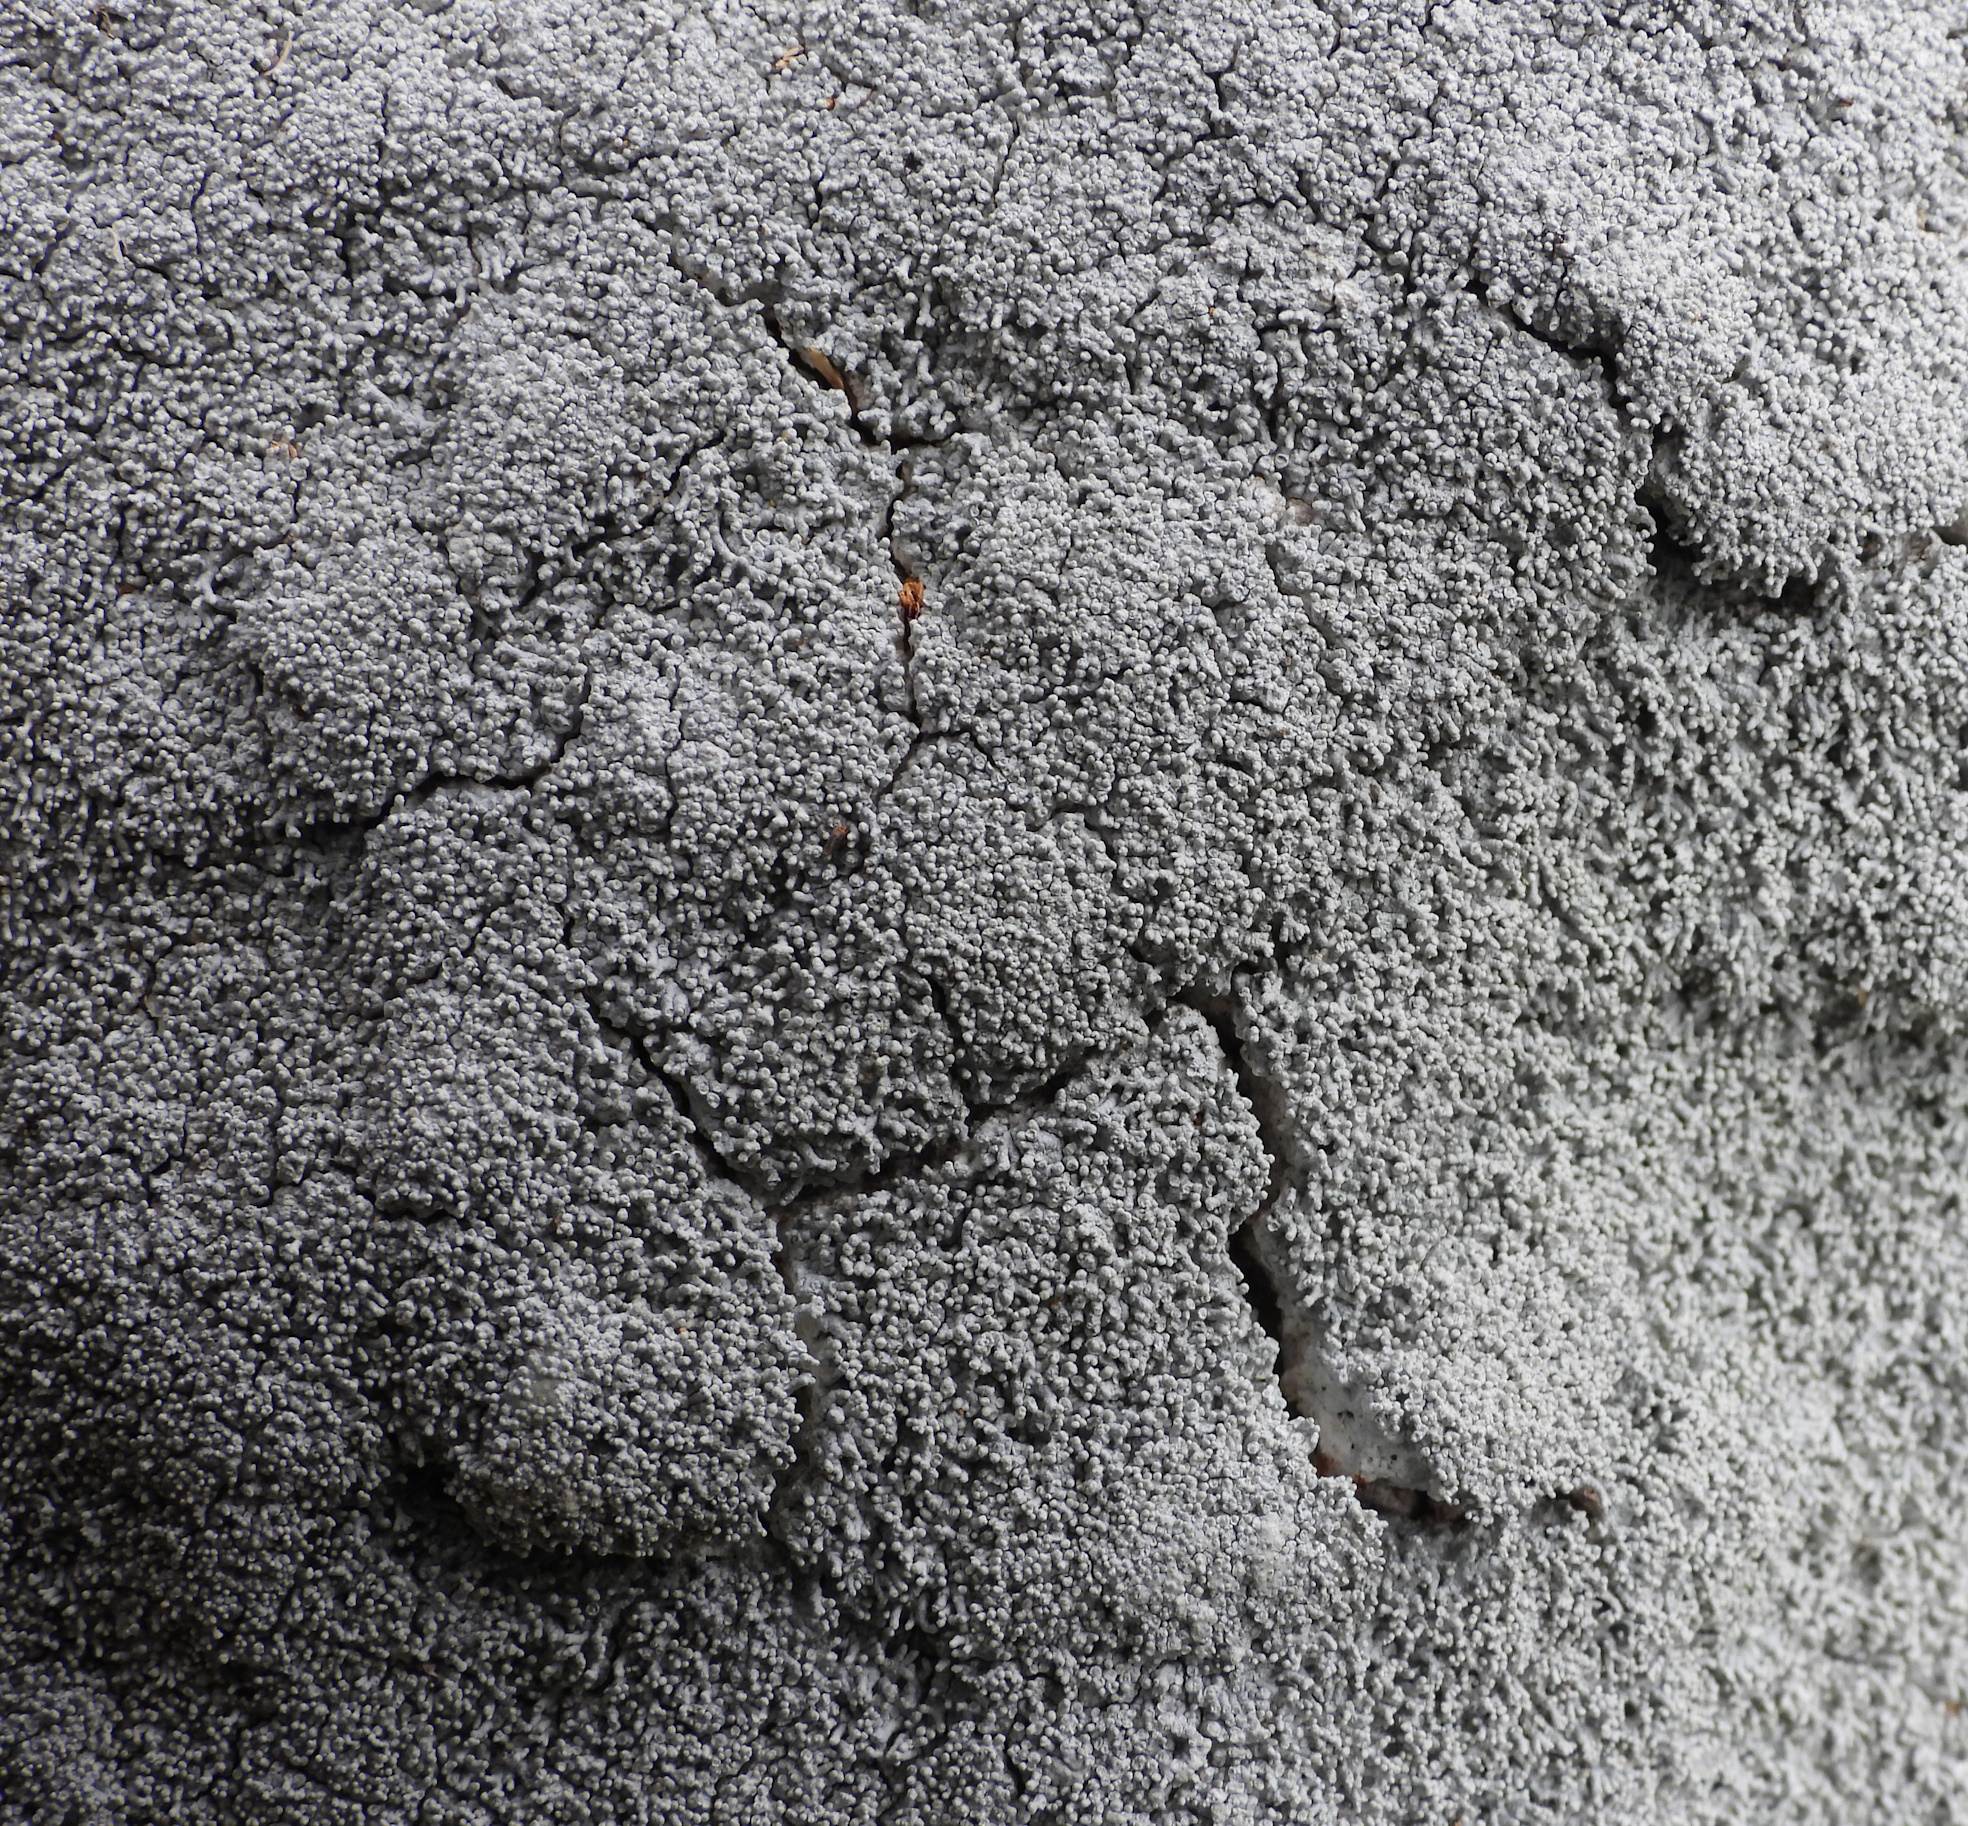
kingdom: Fungi
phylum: Ascomycota
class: Lecanoromycetes
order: Pertusariales
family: Pertusariaceae
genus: Lepra
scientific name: Lepra corallina
